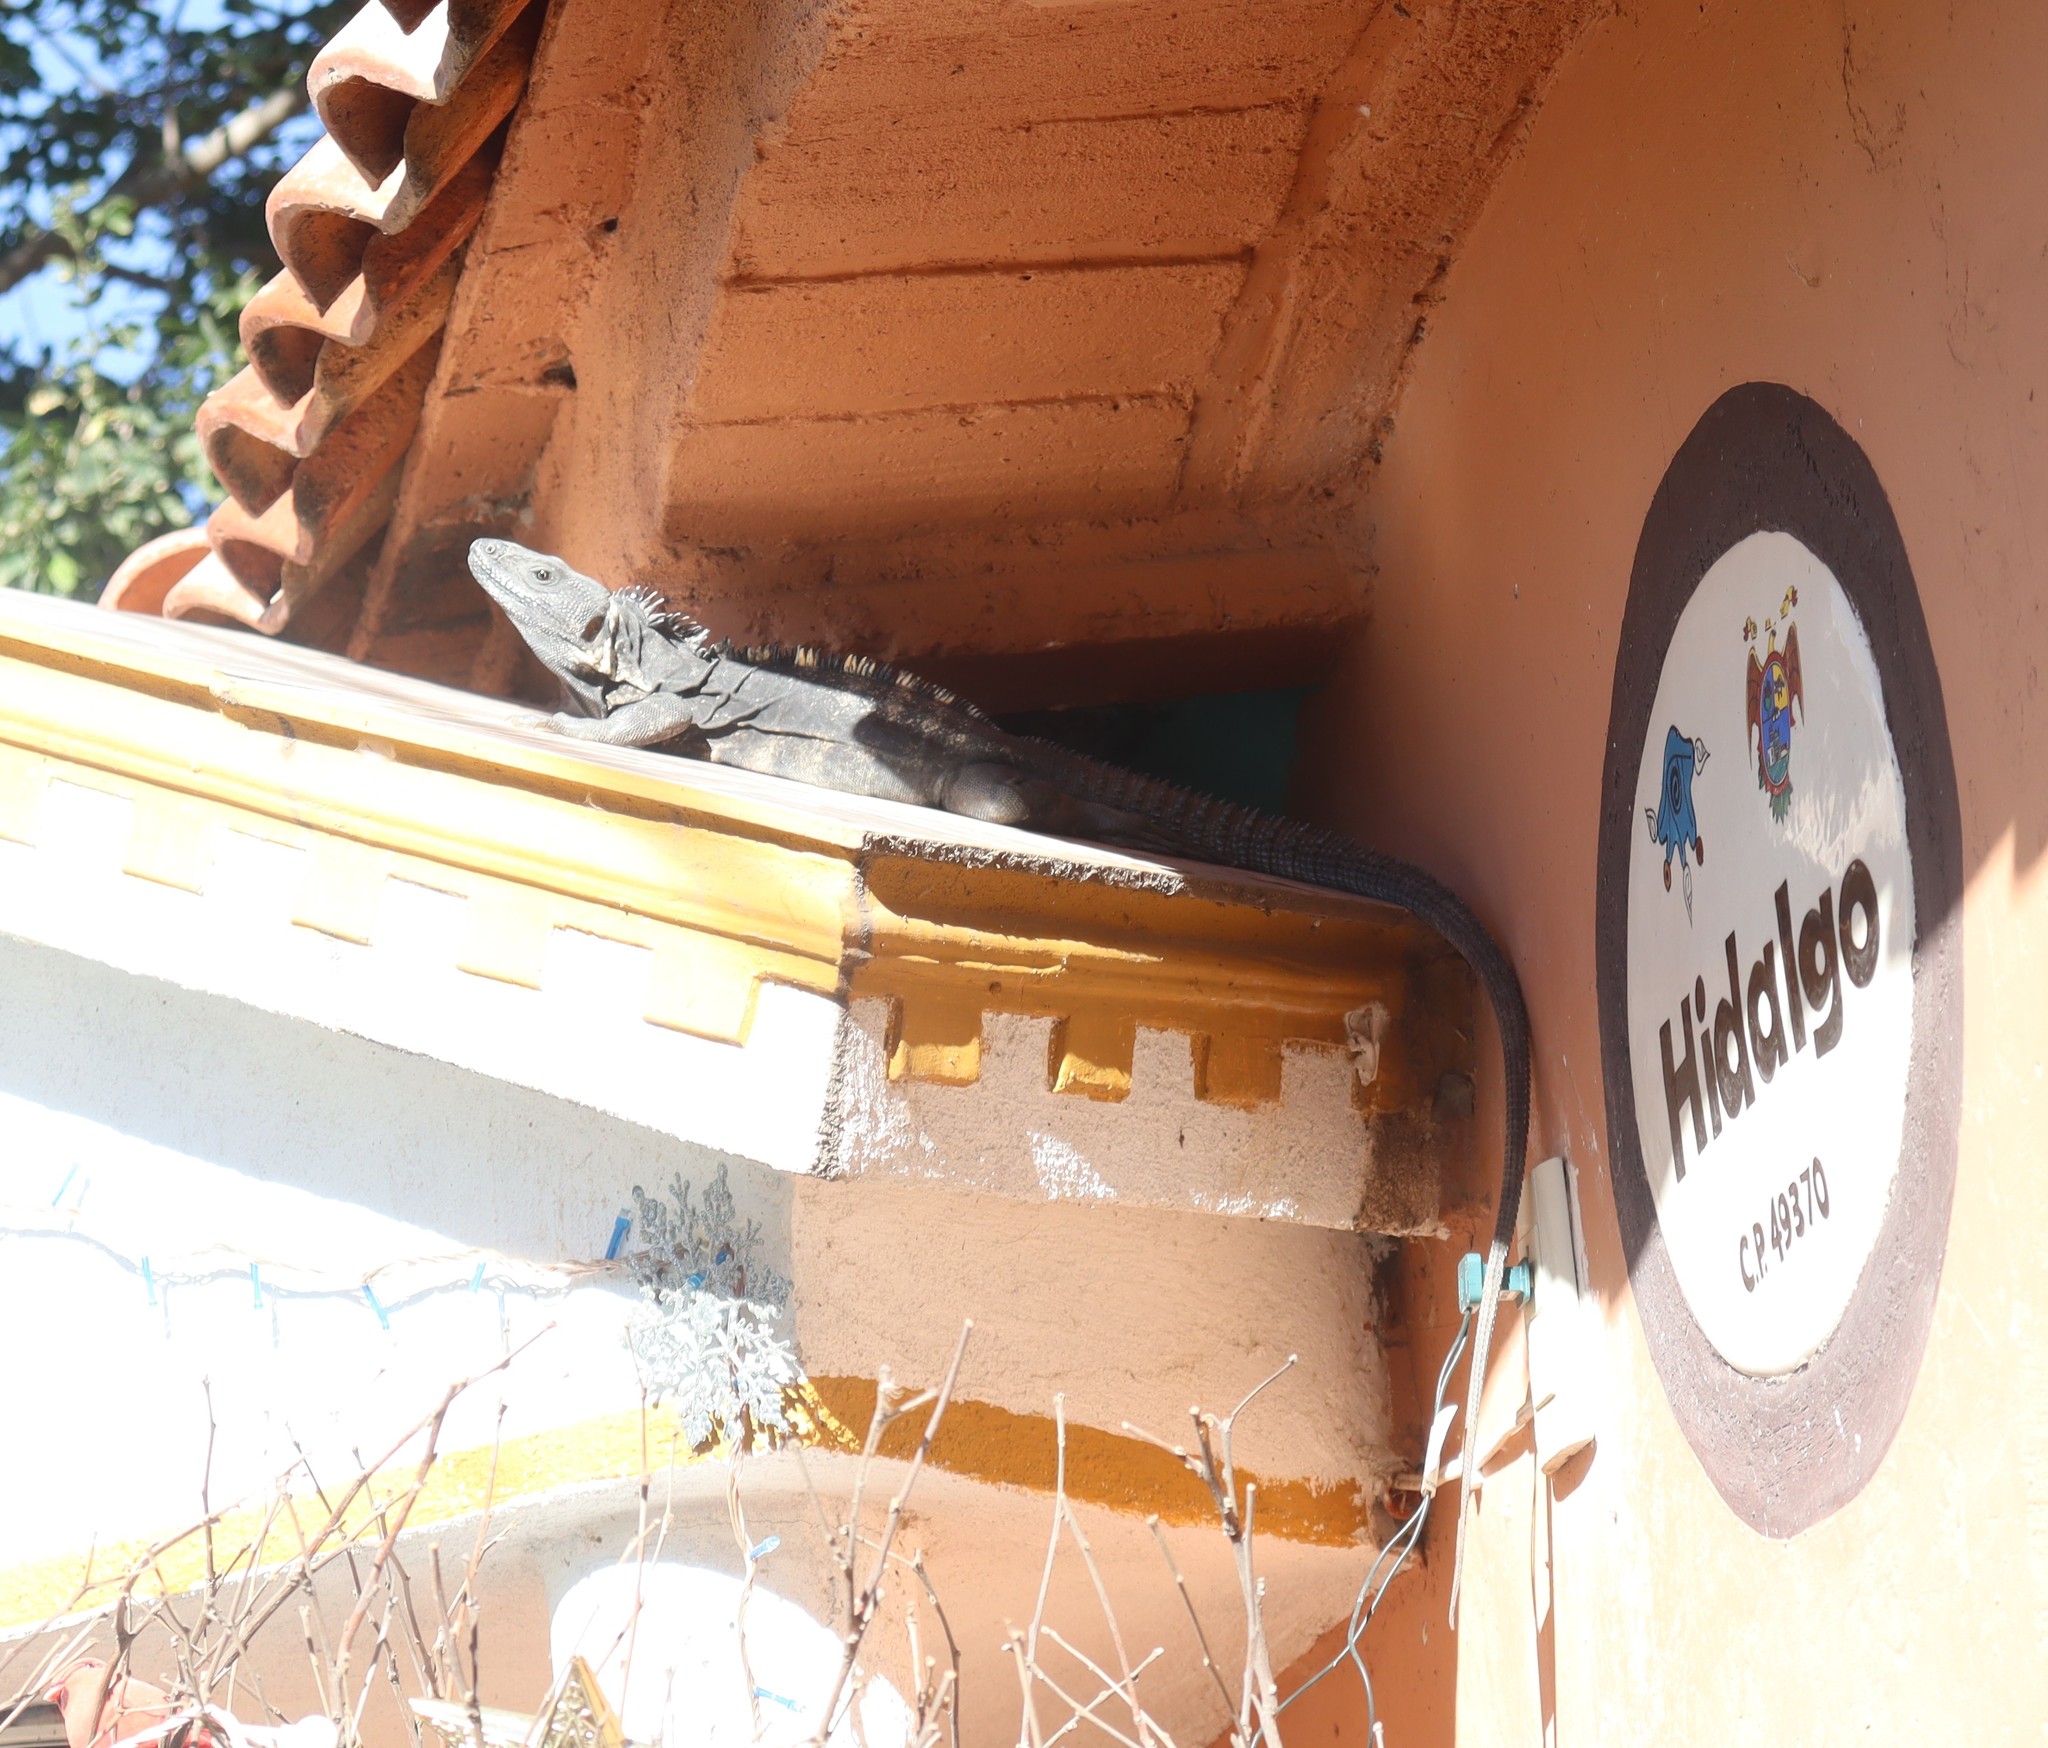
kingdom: Animalia
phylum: Chordata
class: Squamata
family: Iguanidae
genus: Ctenosaura
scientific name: Ctenosaura pectinata
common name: Guerreran spiny-tailed iguana
